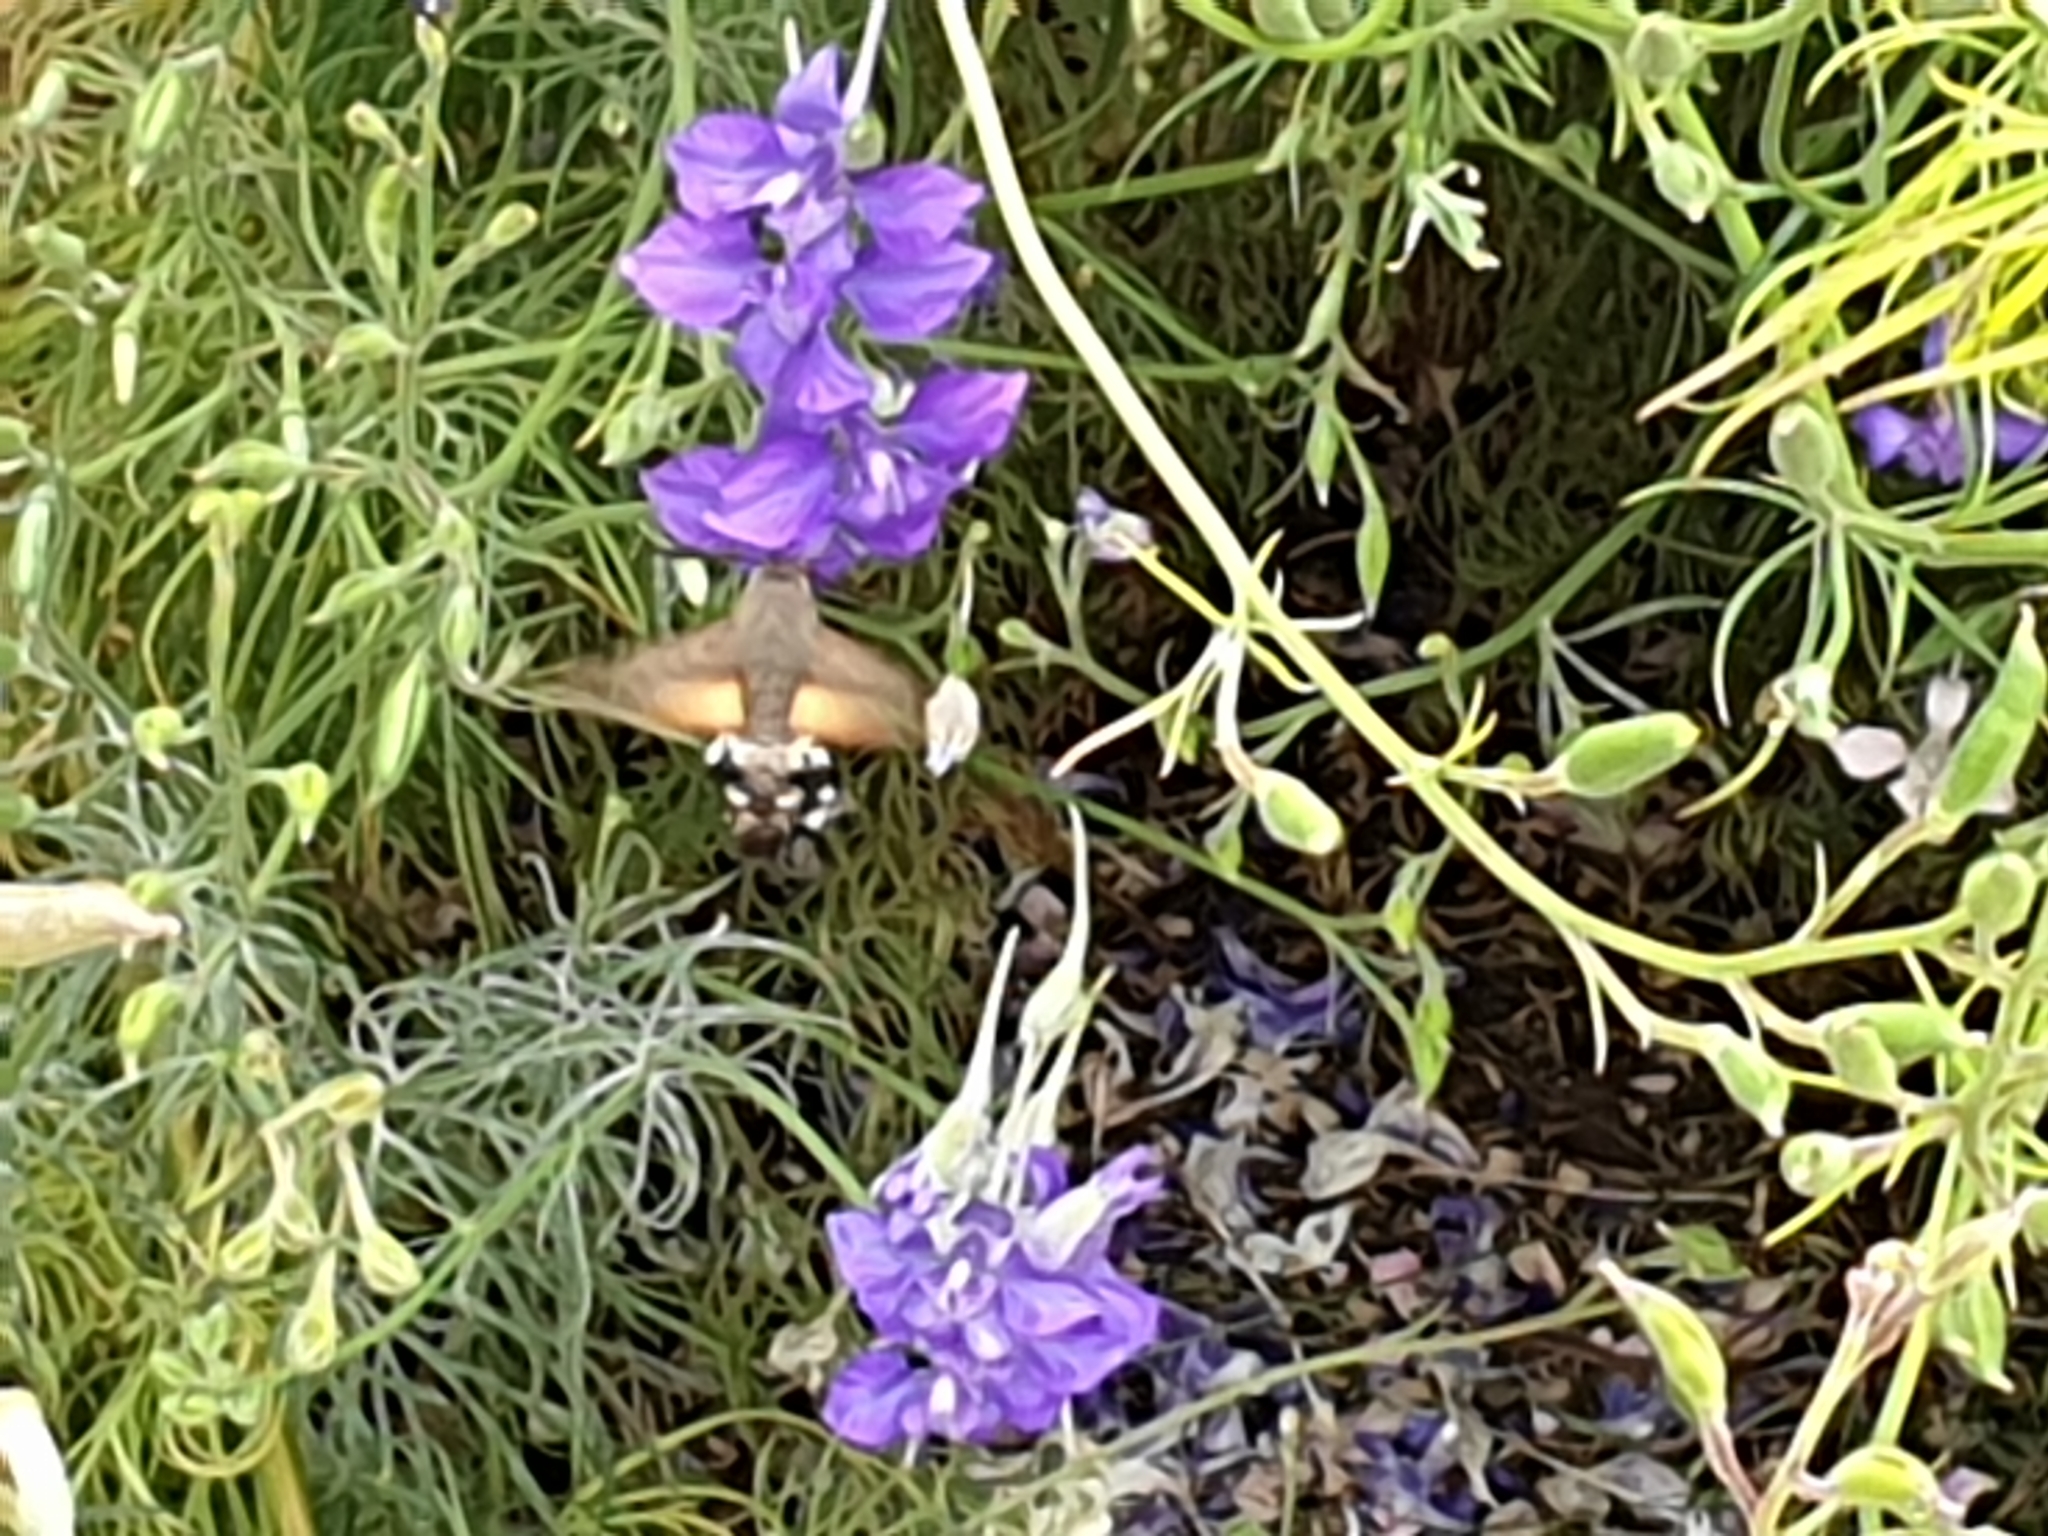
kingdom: Animalia
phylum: Arthropoda
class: Insecta
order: Lepidoptera
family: Sphingidae
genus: Macroglossum
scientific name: Macroglossum stellatarum
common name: Humming-bird hawk-moth
